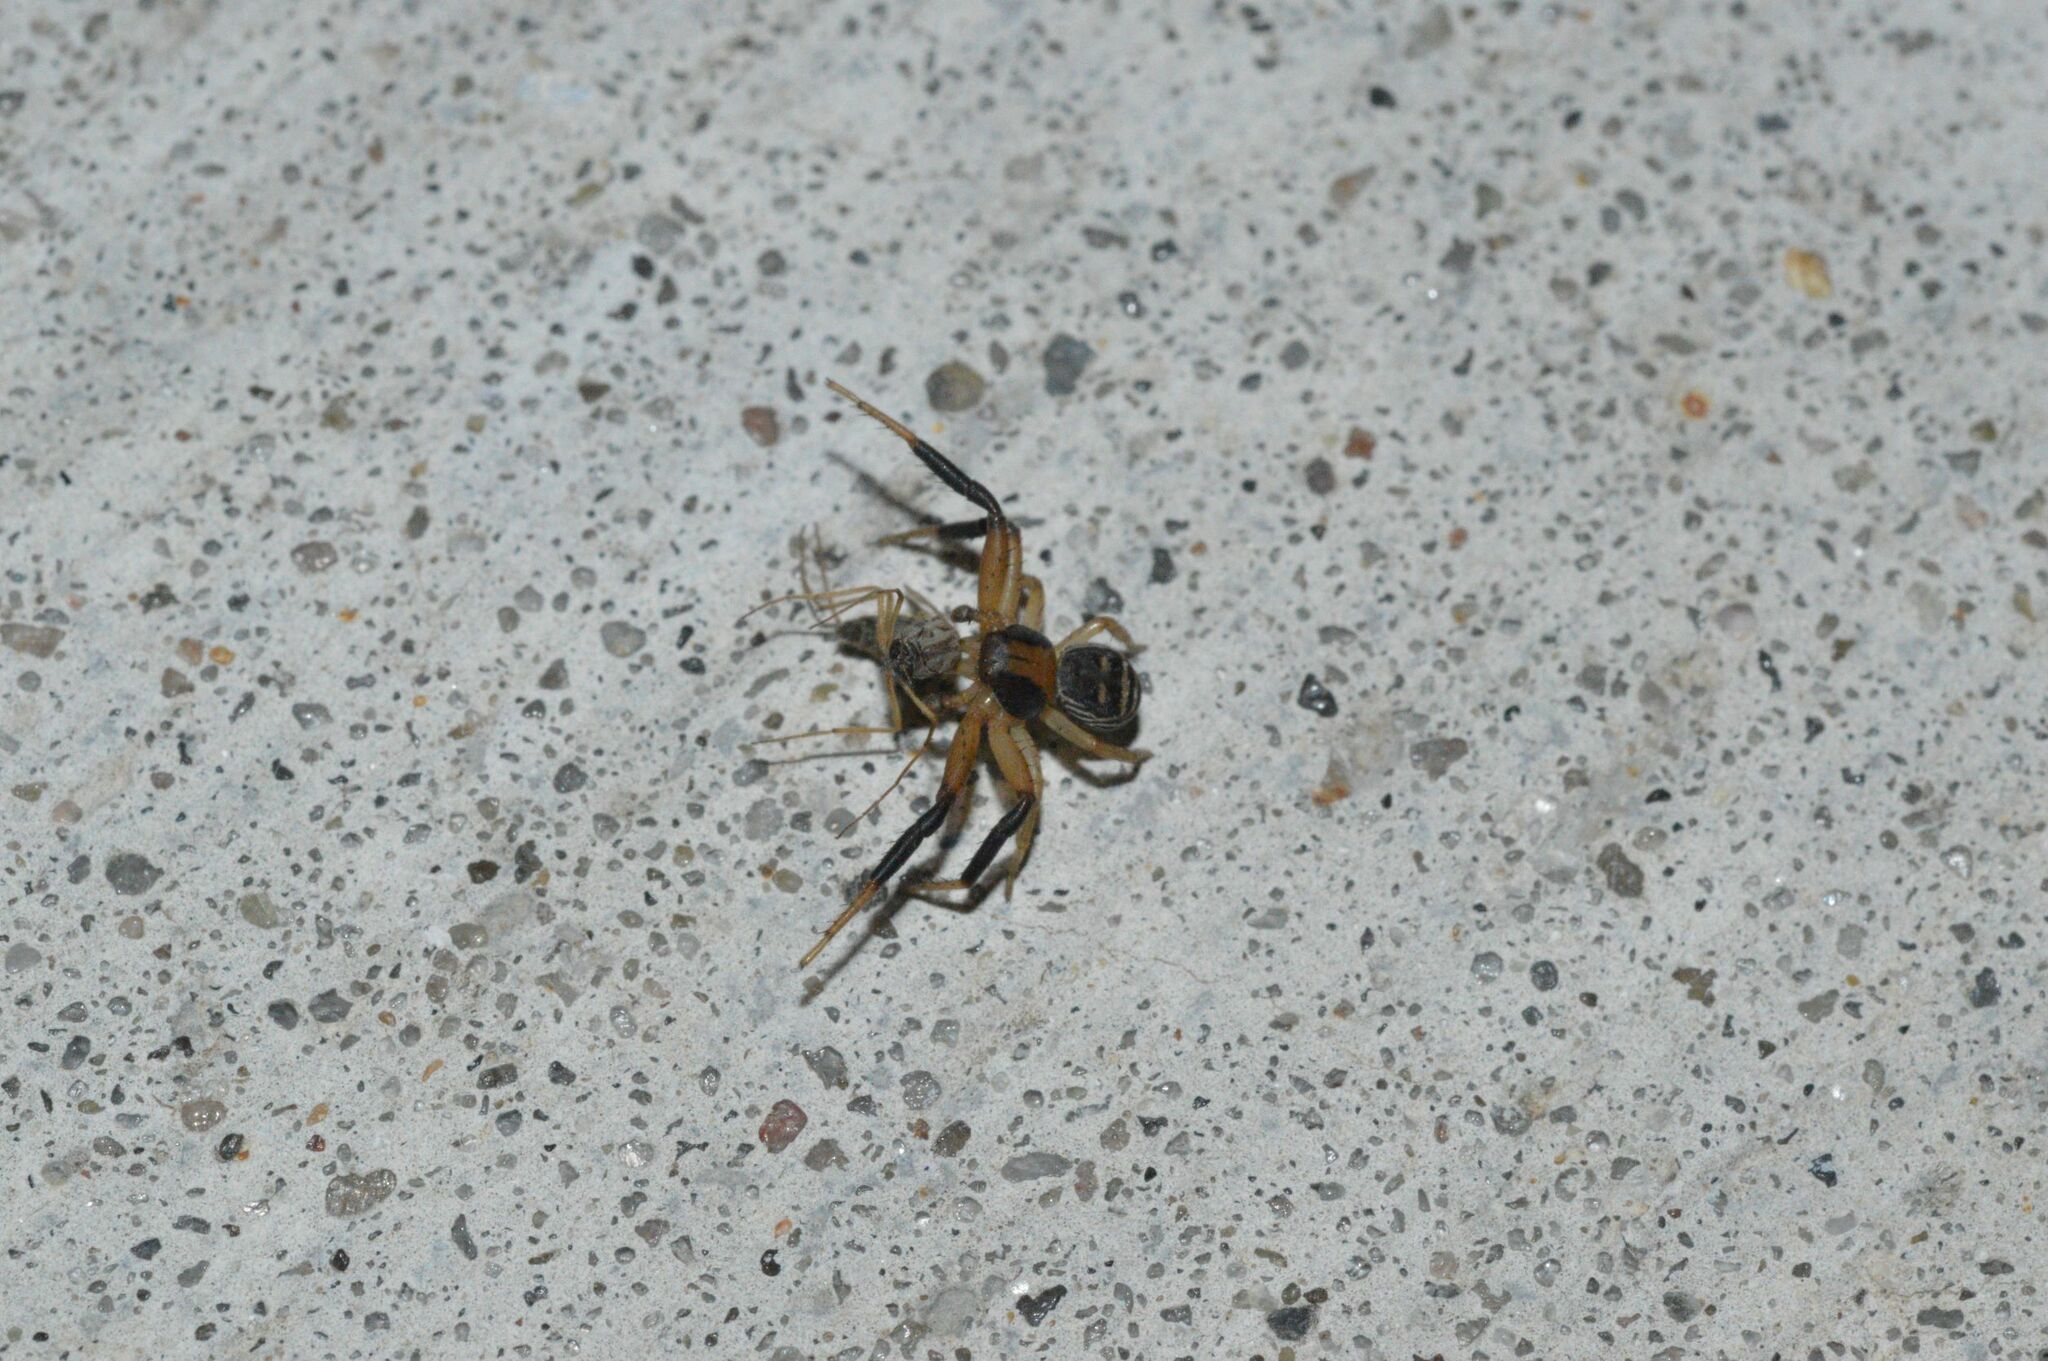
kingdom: Animalia
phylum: Arthropoda
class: Arachnida
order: Araneae
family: Thomisidae
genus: Xysticus
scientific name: Xysticus texanus
